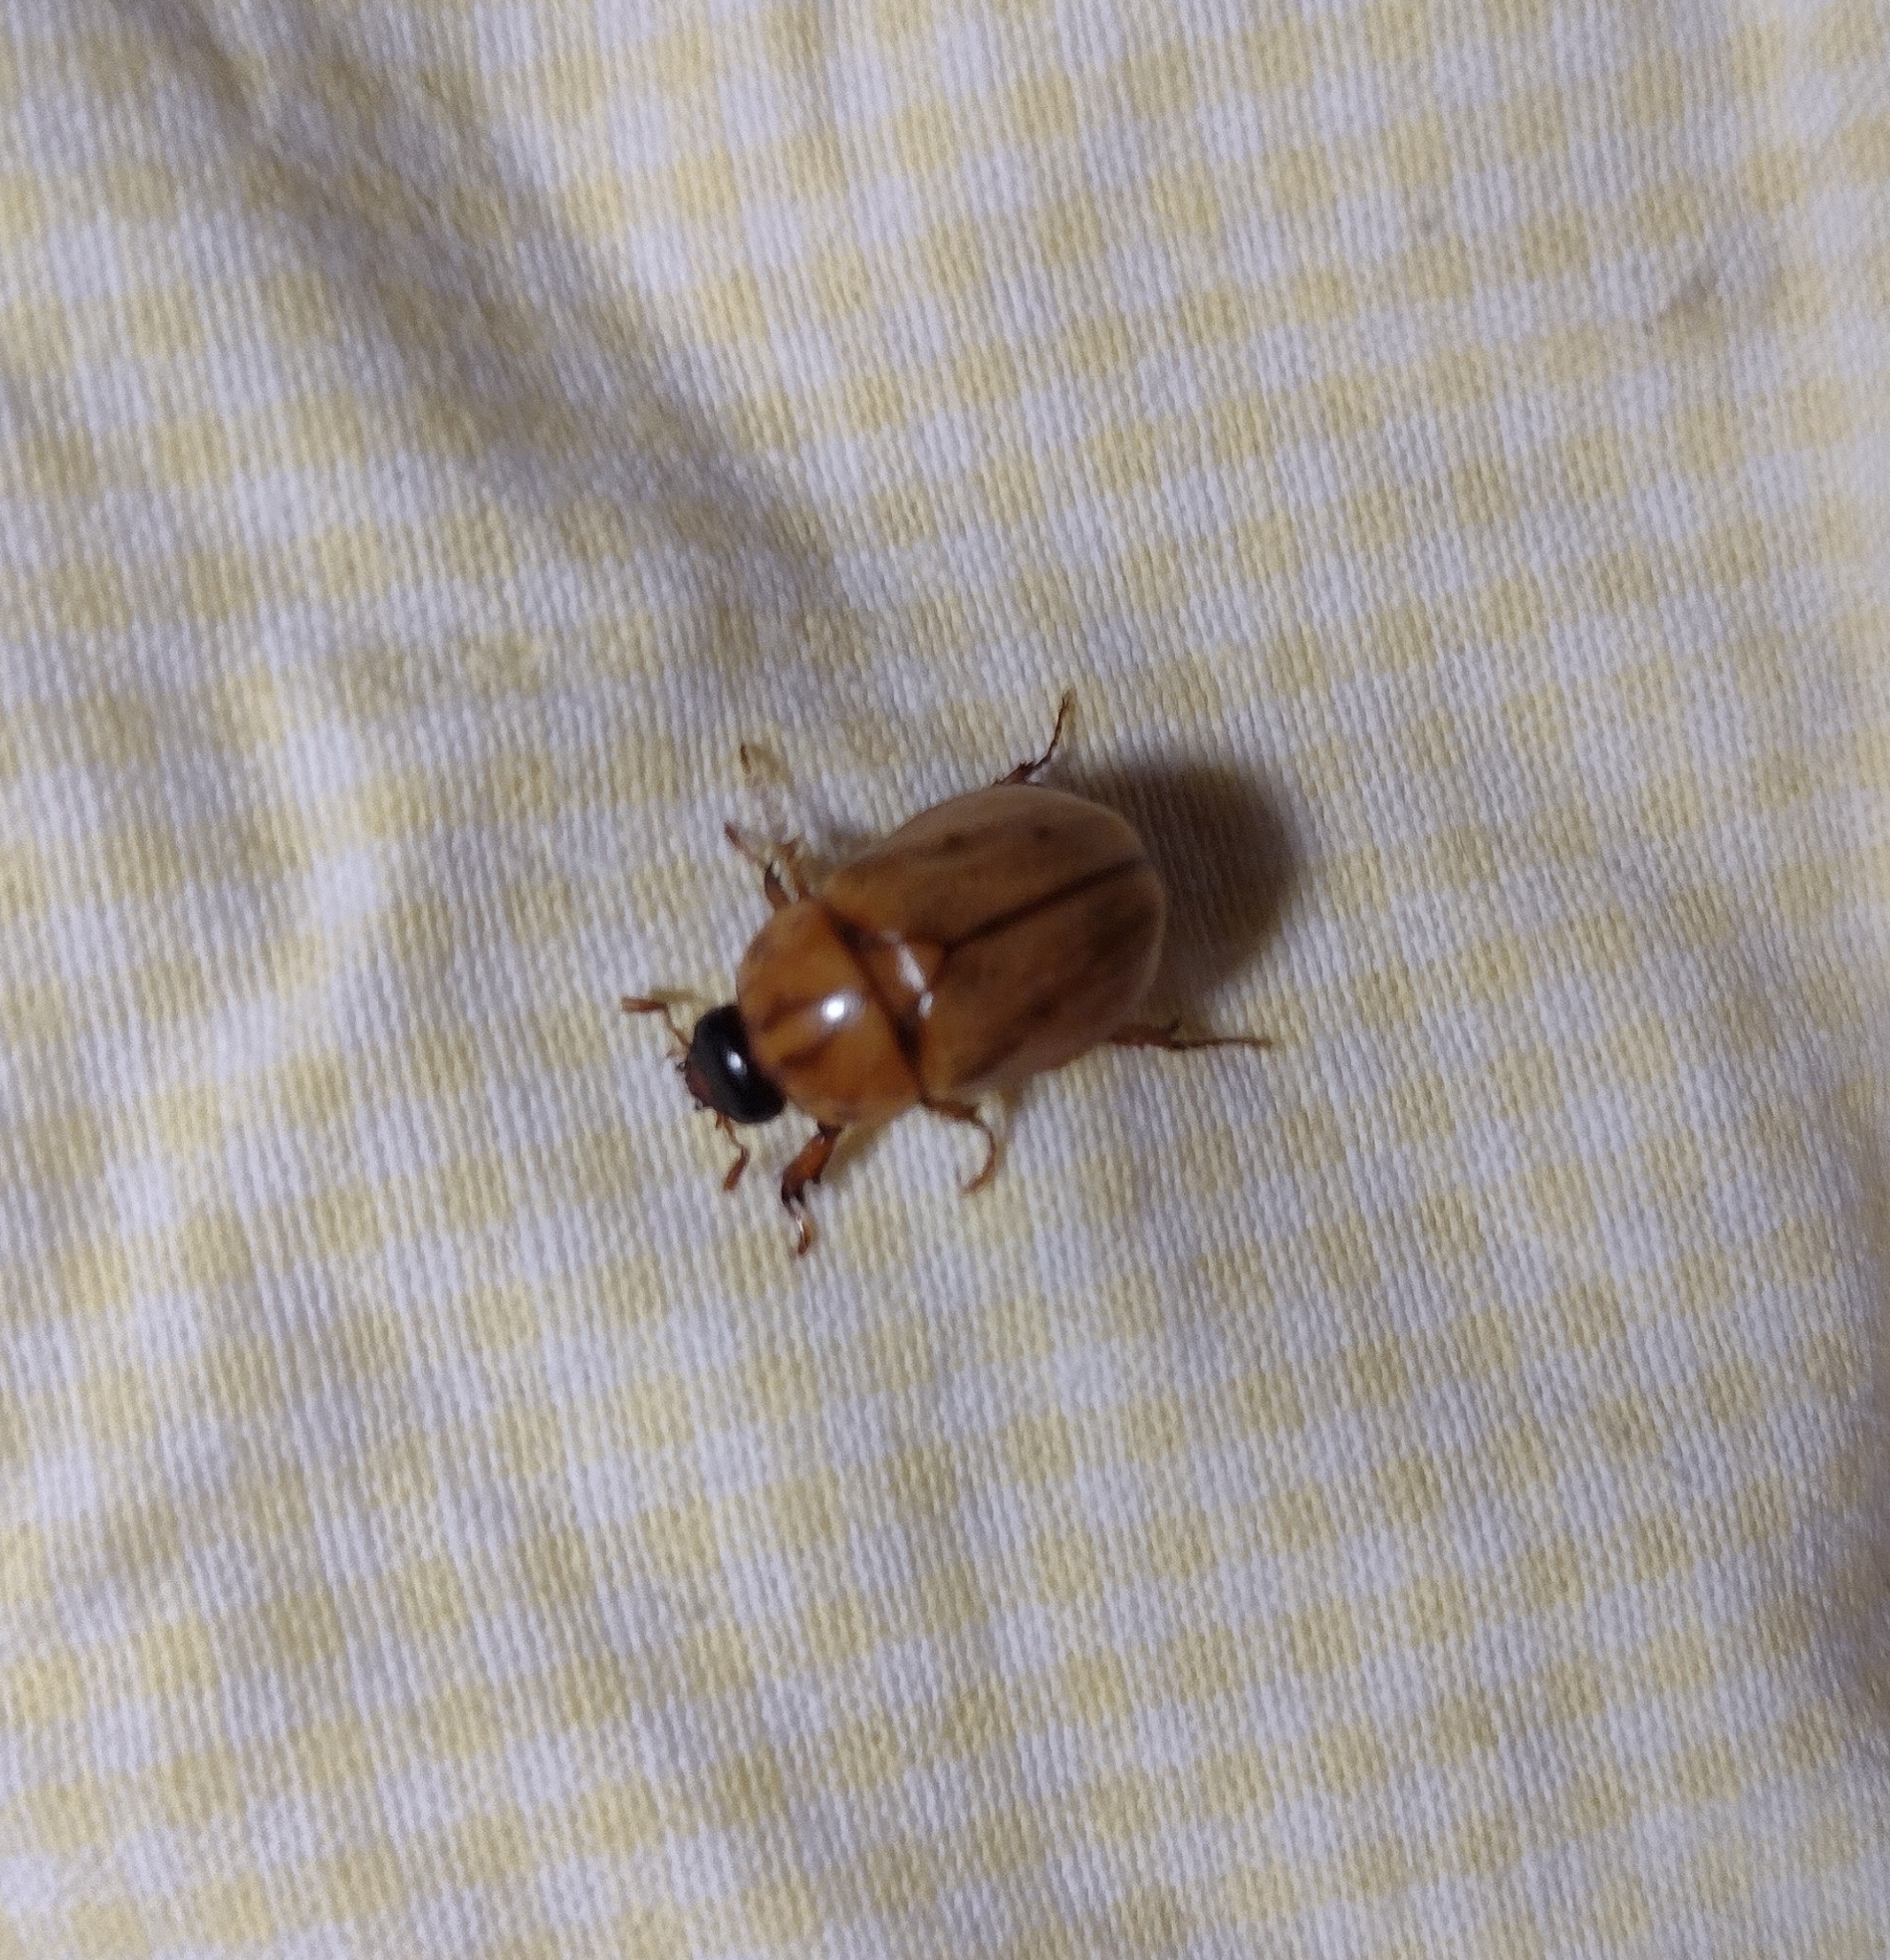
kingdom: Animalia
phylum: Arthropoda
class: Insecta
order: Coleoptera
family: Scarabaeidae
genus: Cyclocephala
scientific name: Cyclocephala signaticollis
